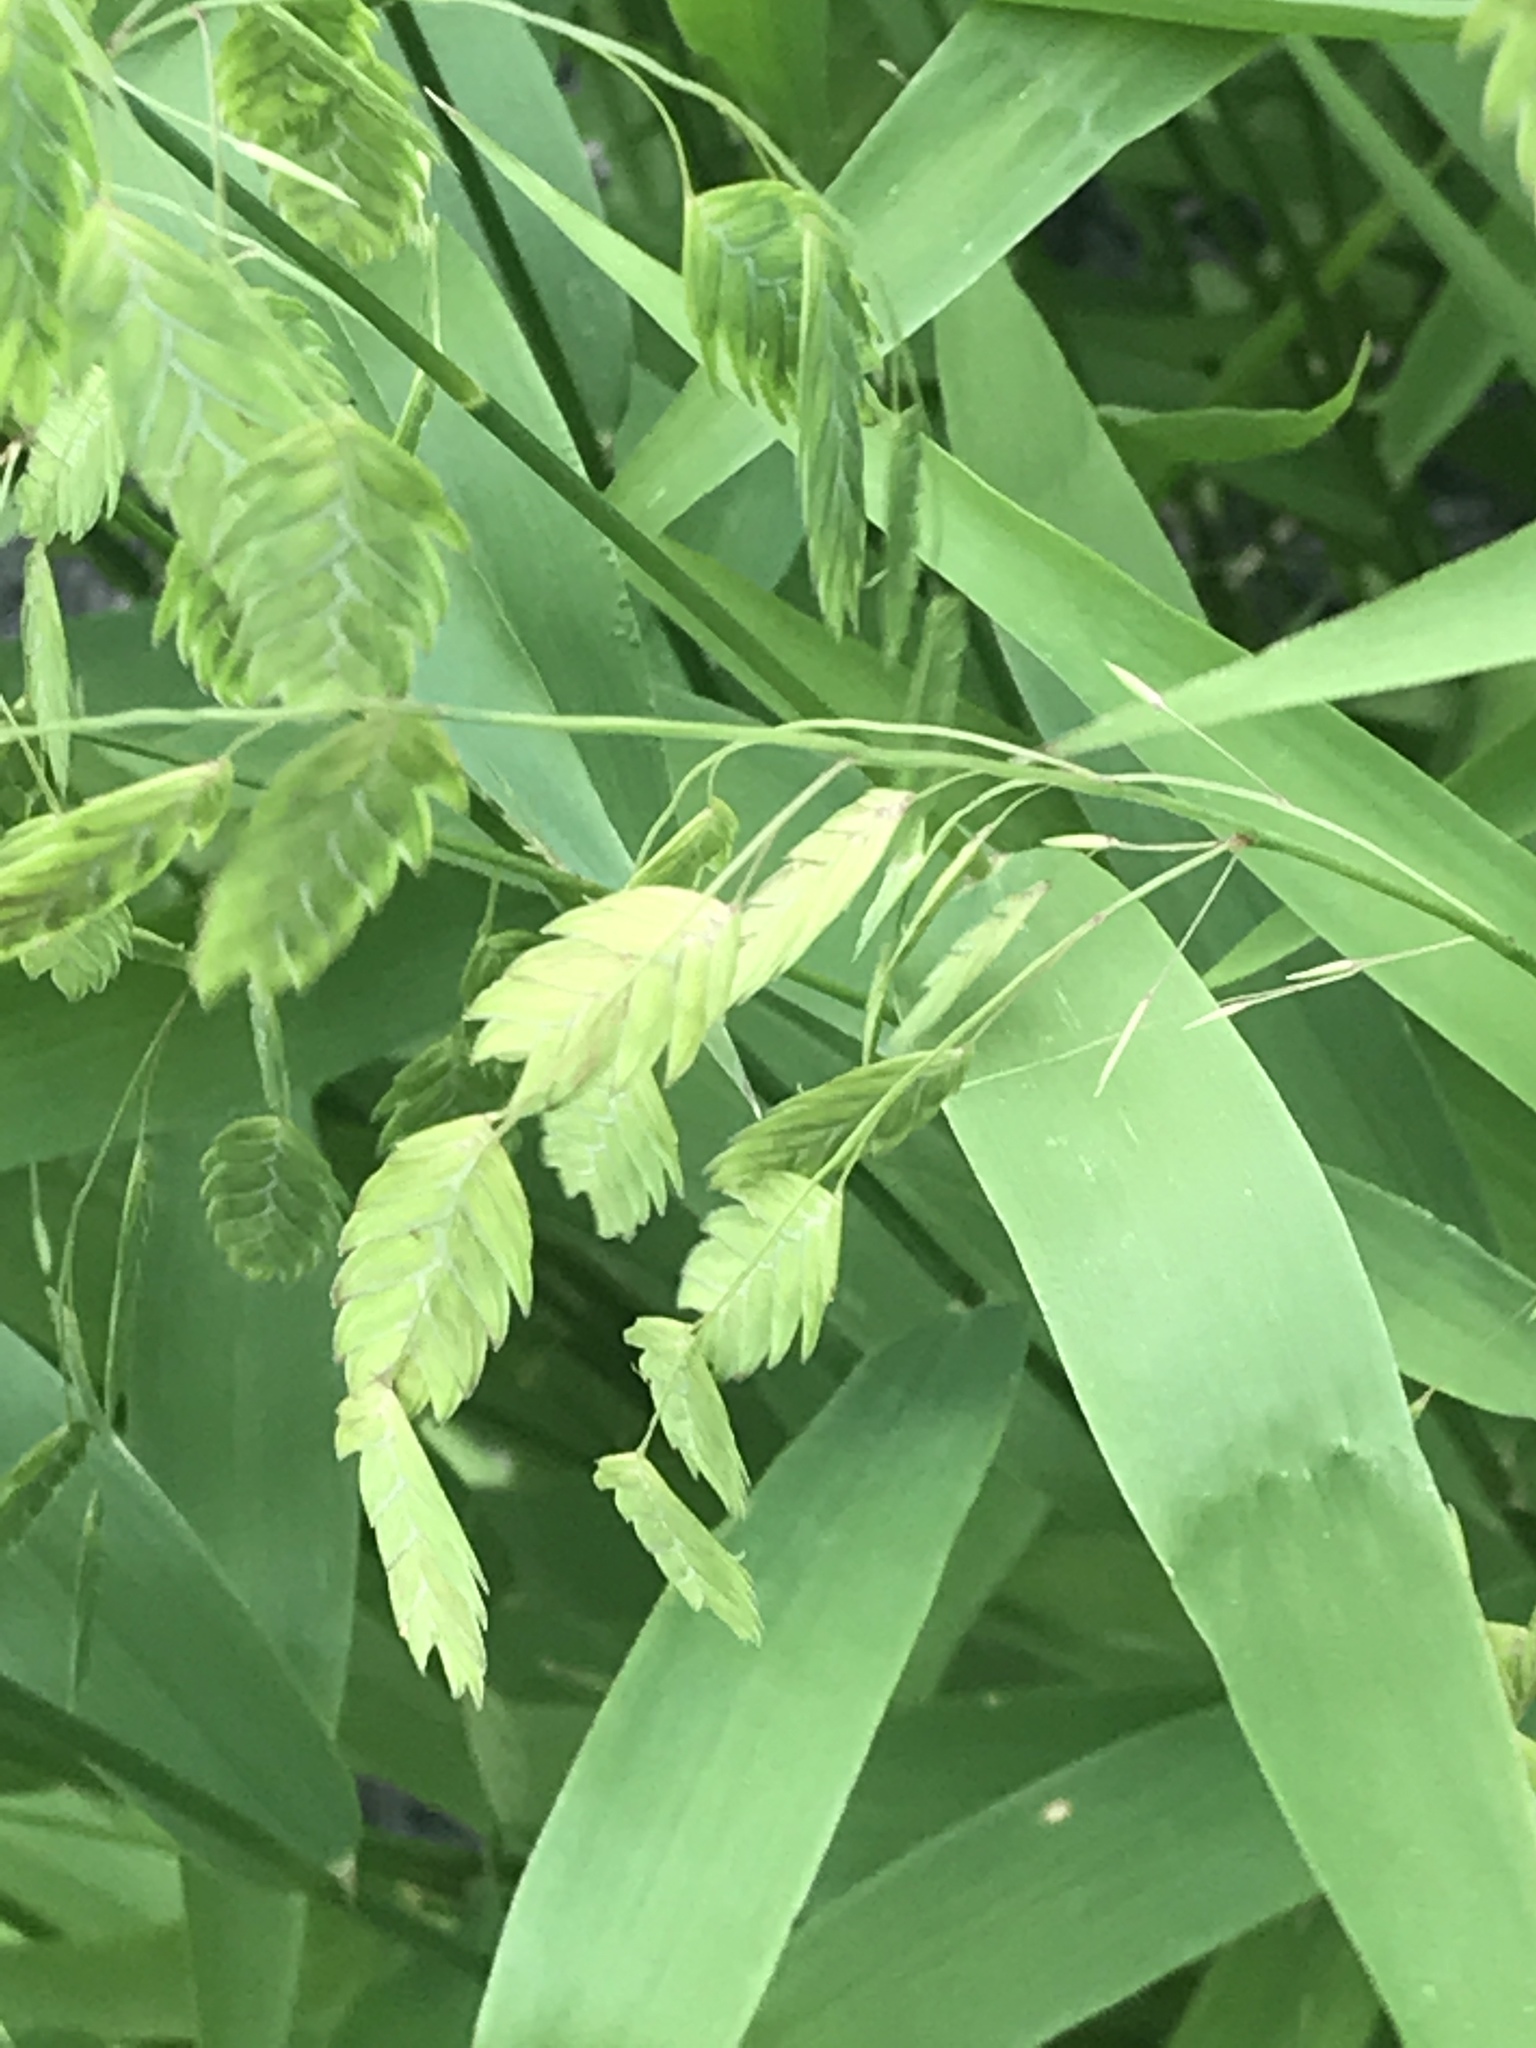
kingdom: Plantae
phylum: Tracheophyta
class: Liliopsida
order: Poales
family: Poaceae
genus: Chasmanthium
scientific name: Chasmanthium latifolium
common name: Broad-leaved chasmanthium
